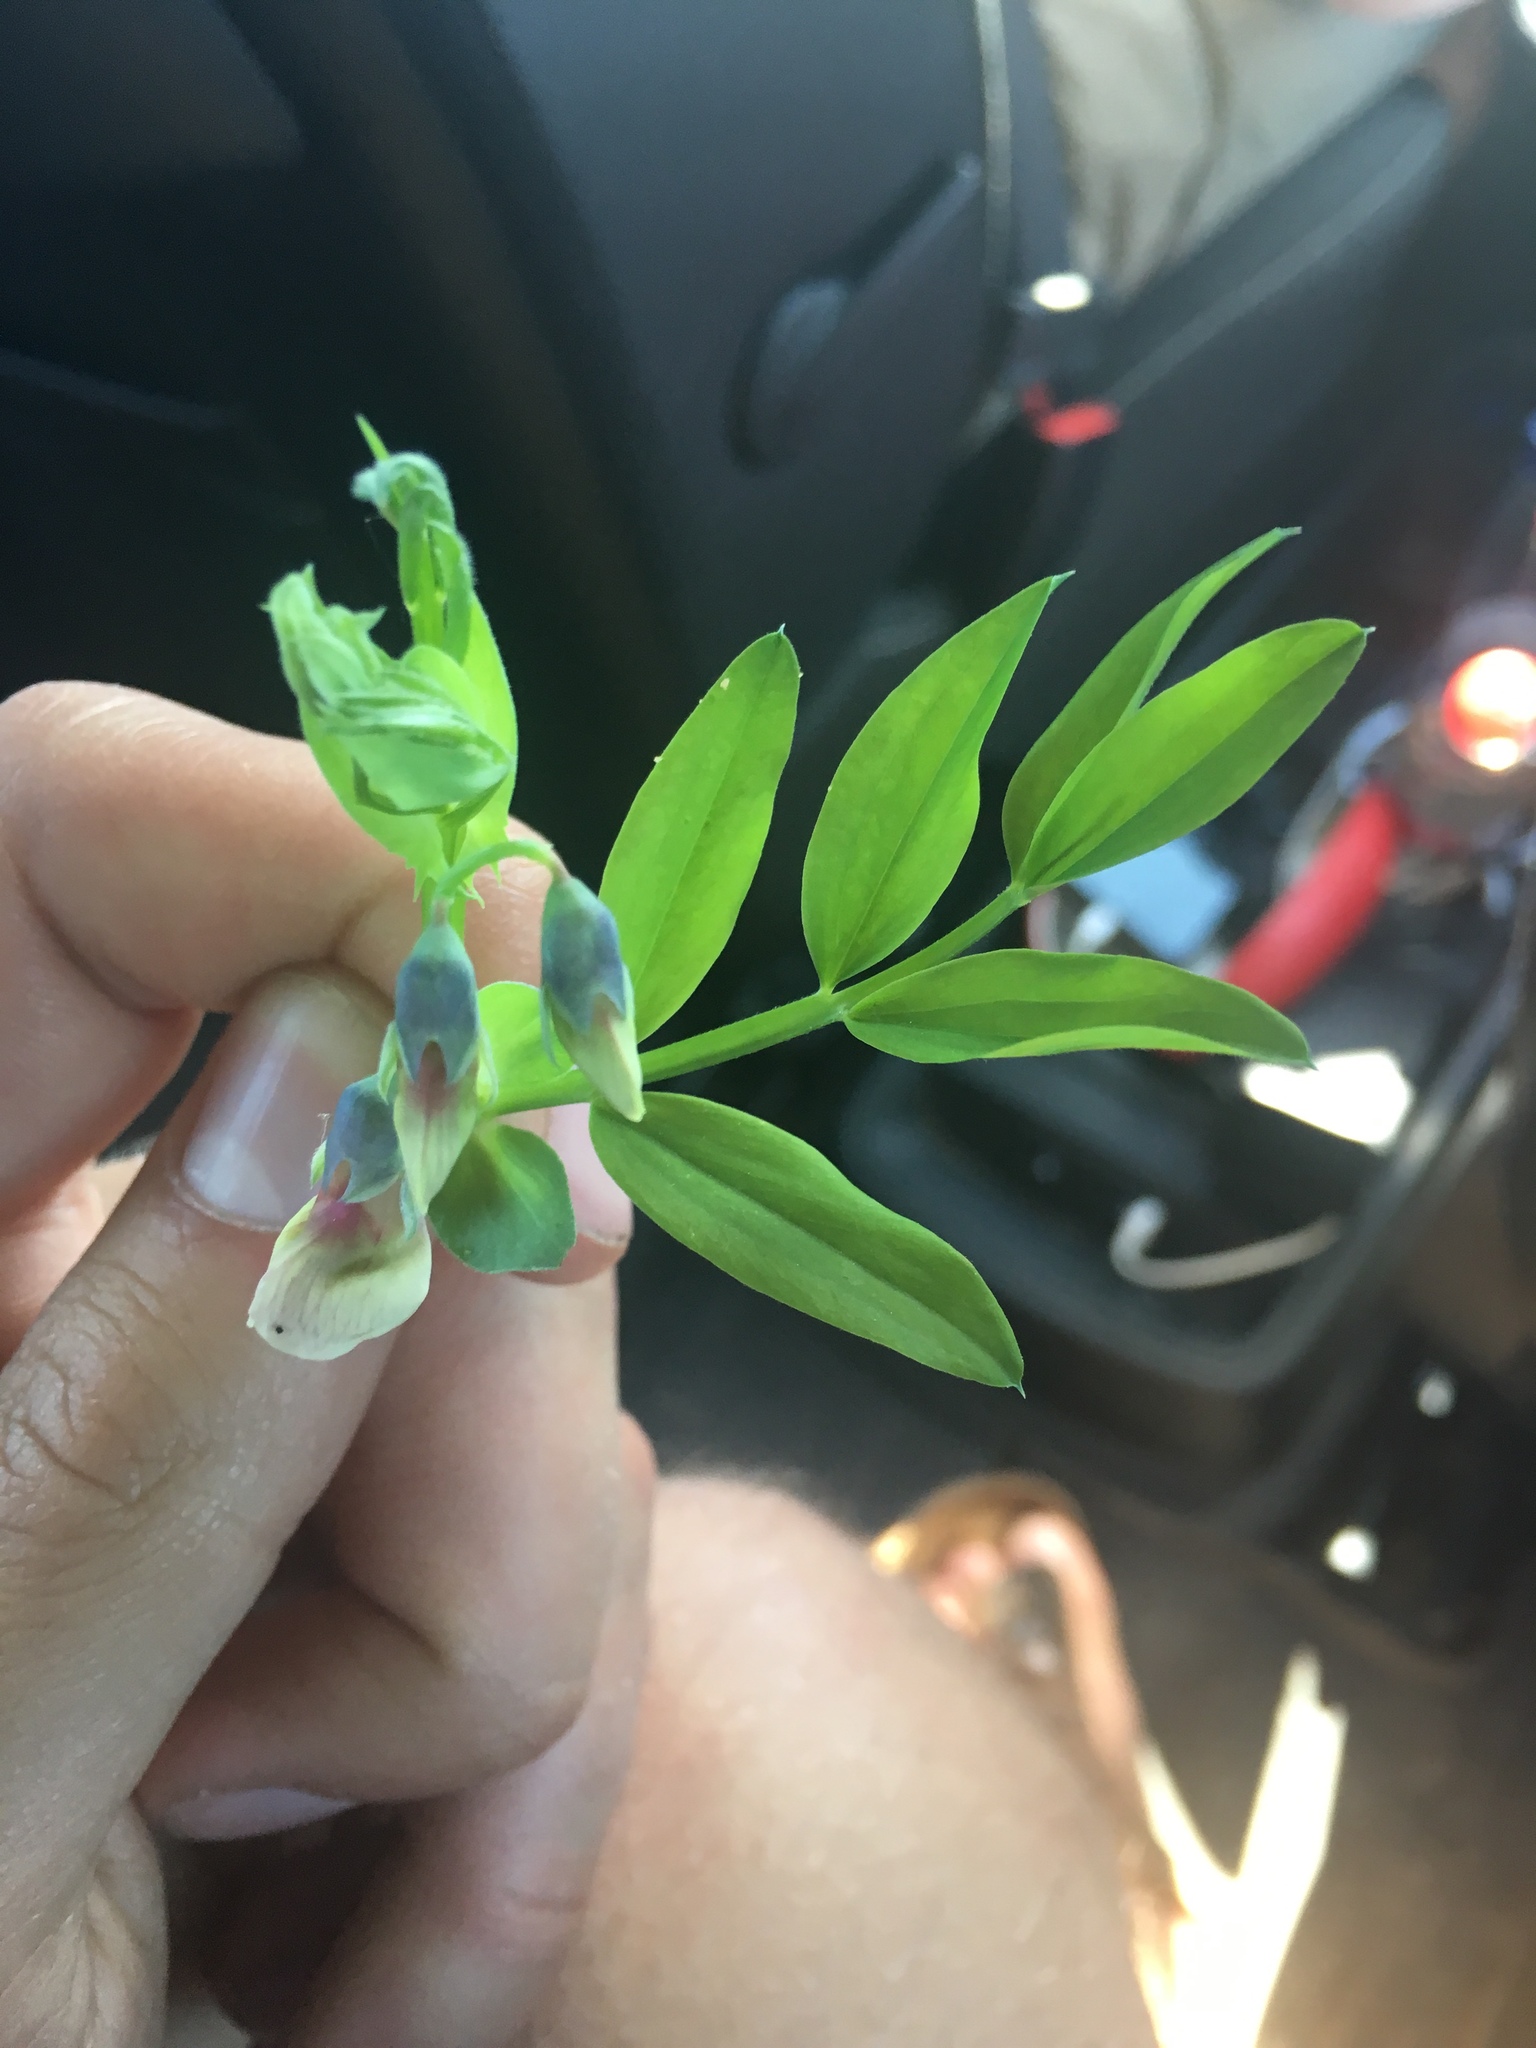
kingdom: Plantae
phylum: Tracheophyta
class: Magnoliopsida
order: Fabales
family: Fabaceae
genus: Lathyrus
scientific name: Lathyrus linifolius
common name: Bitter-vetch
